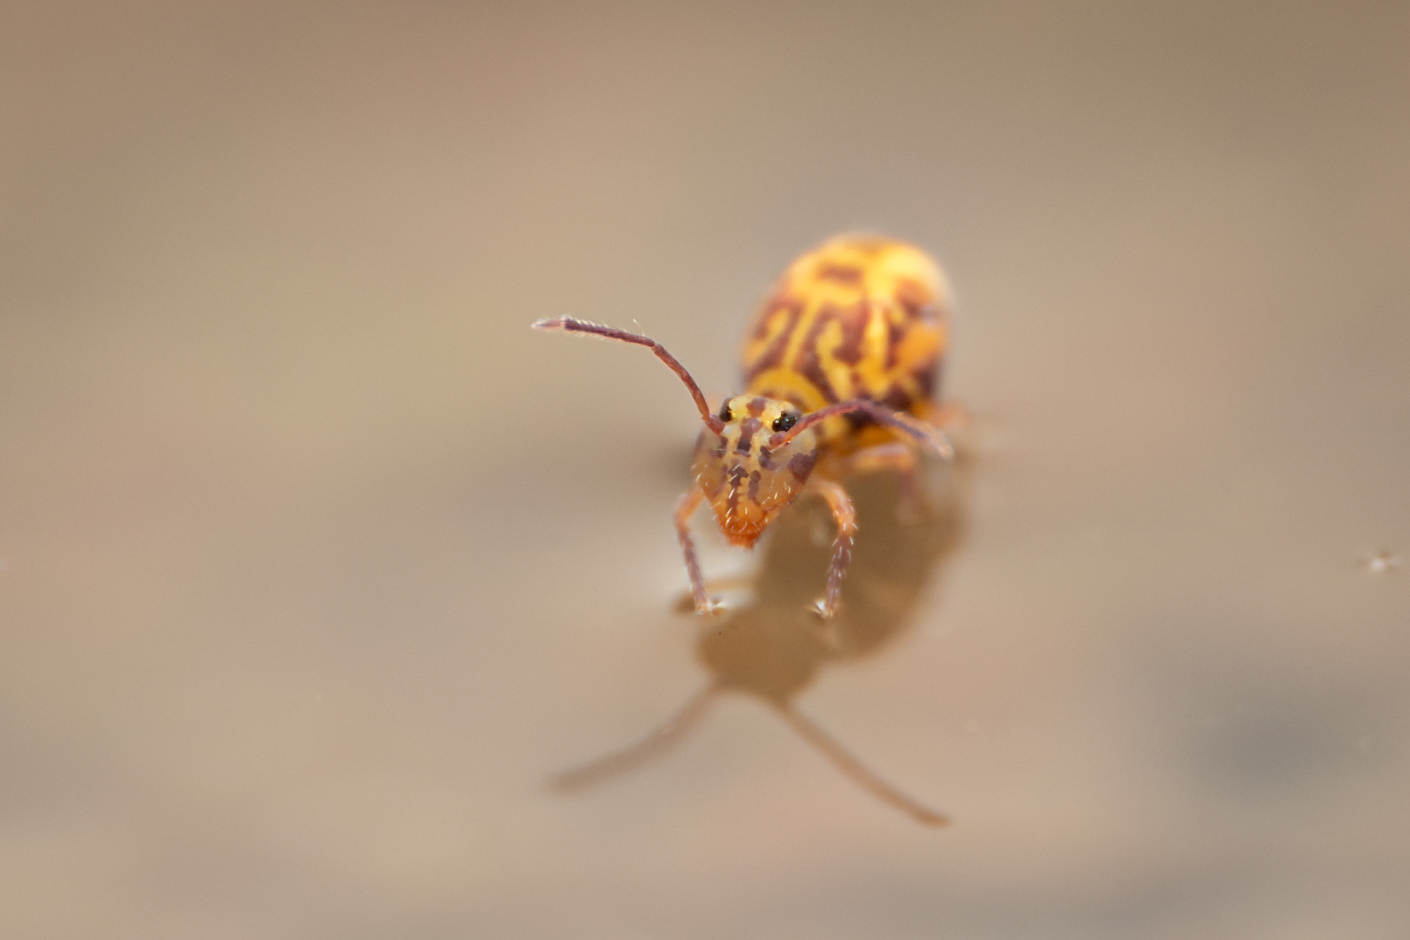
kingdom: Animalia
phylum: Arthropoda
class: Collembola
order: Symphypleona
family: Dicyrtomidae
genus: Dicyrtomina
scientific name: Dicyrtomina minuta
